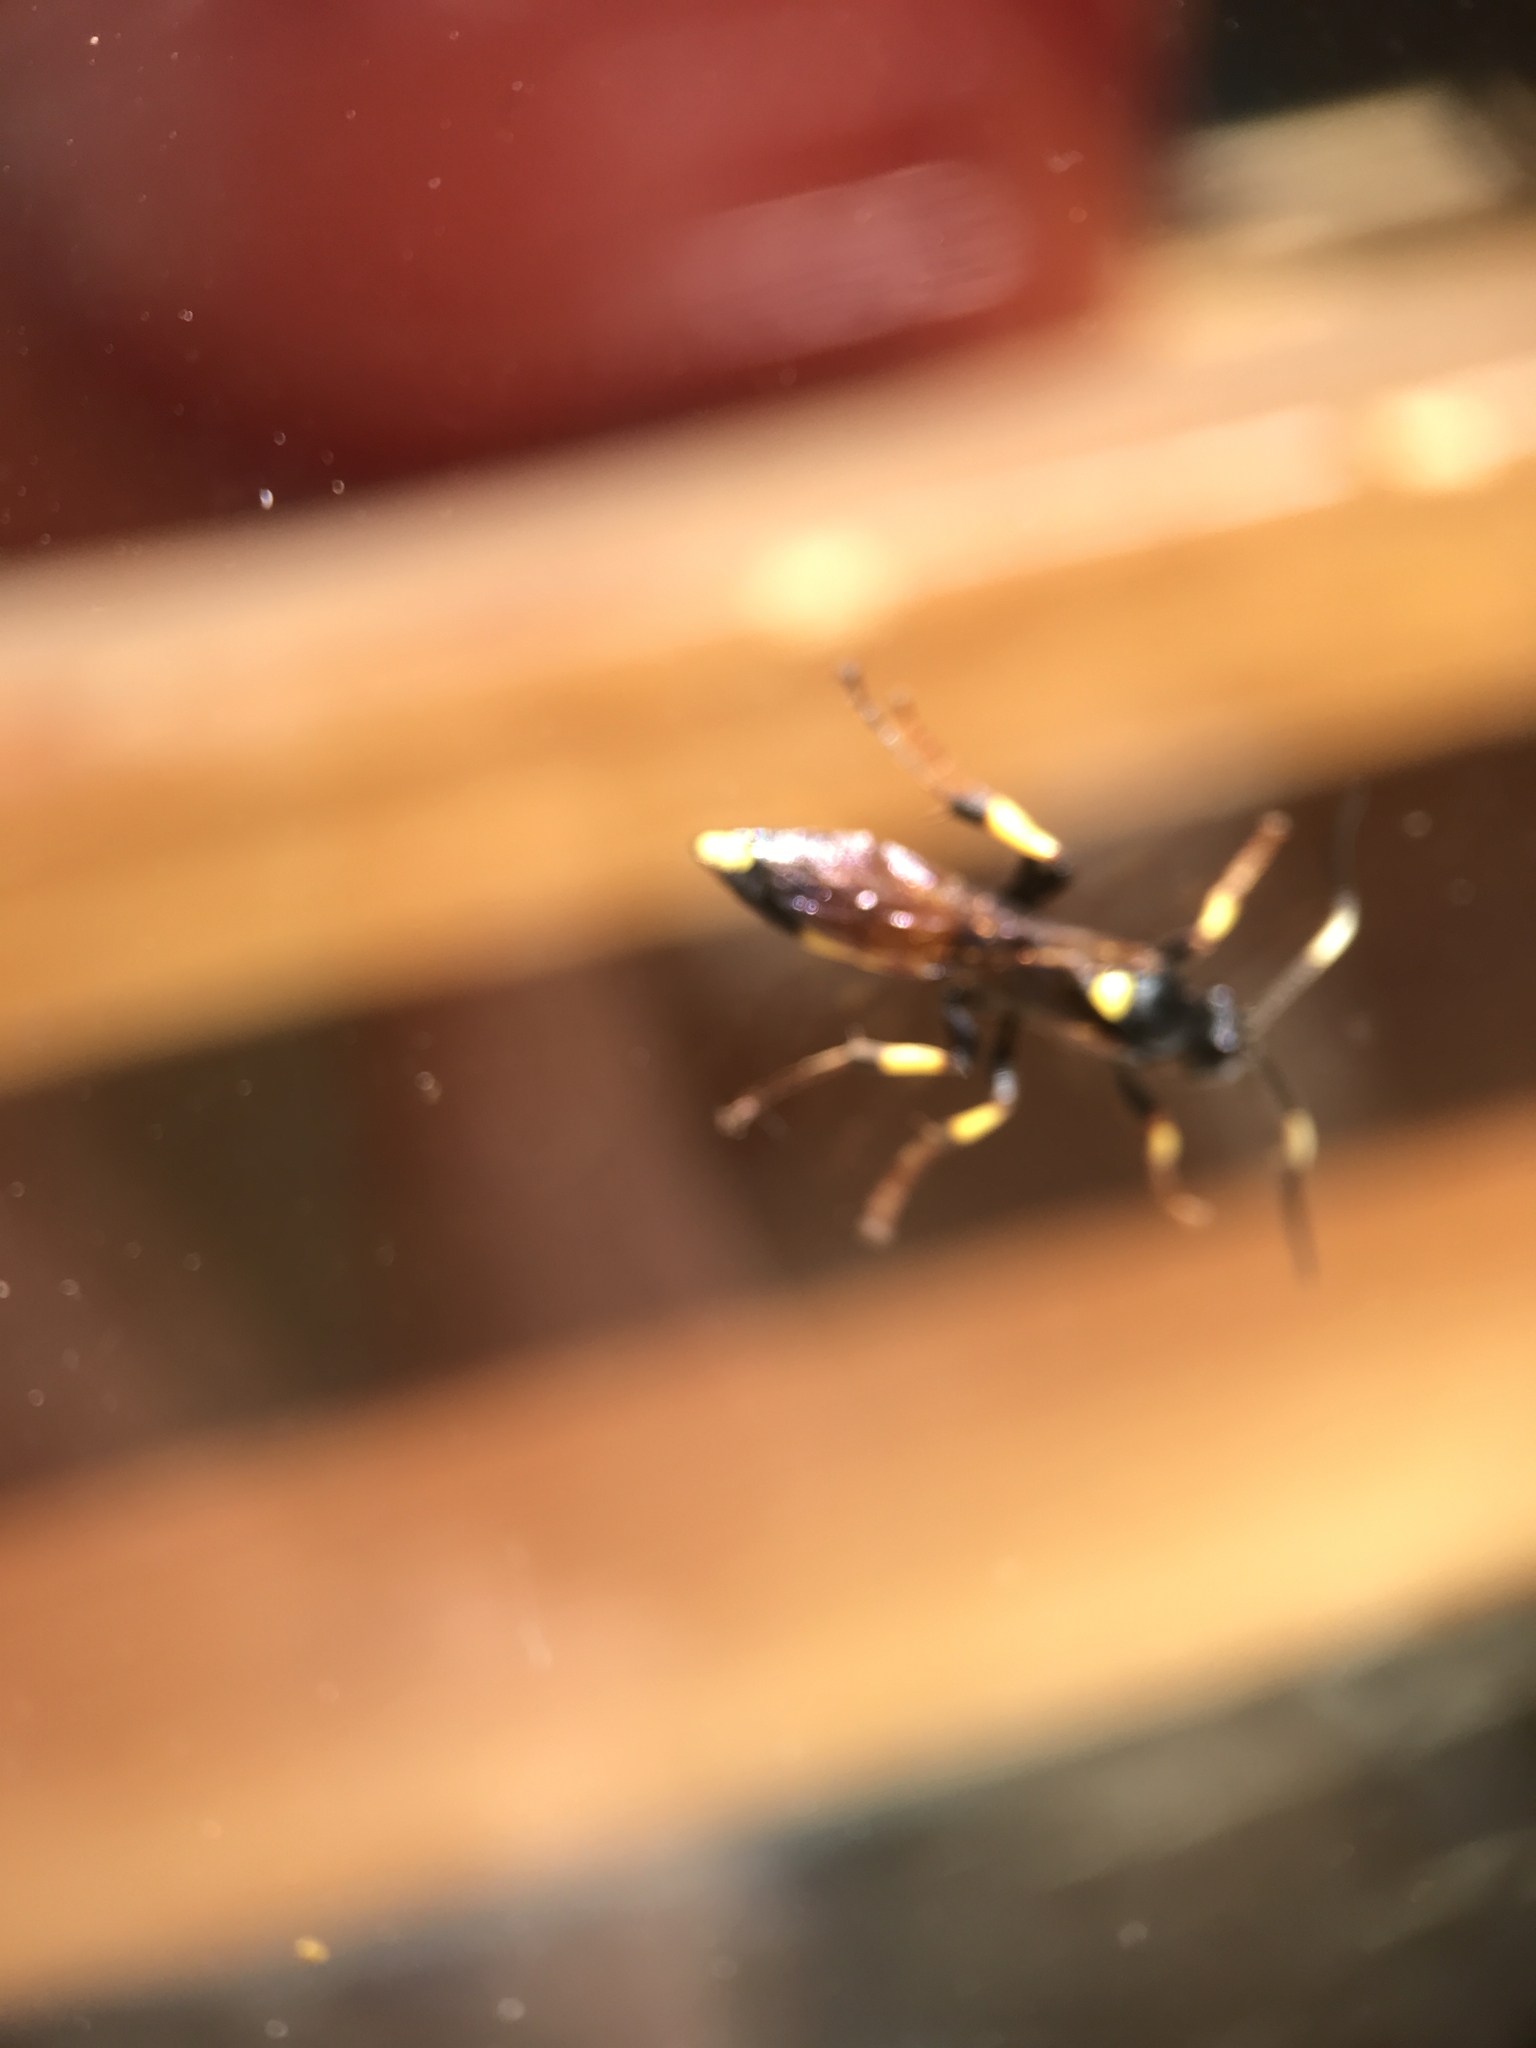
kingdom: Animalia
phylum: Arthropoda
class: Insecta
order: Hymenoptera
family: Ichneumonidae
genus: Ichneumon
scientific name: Ichneumon stramentor
